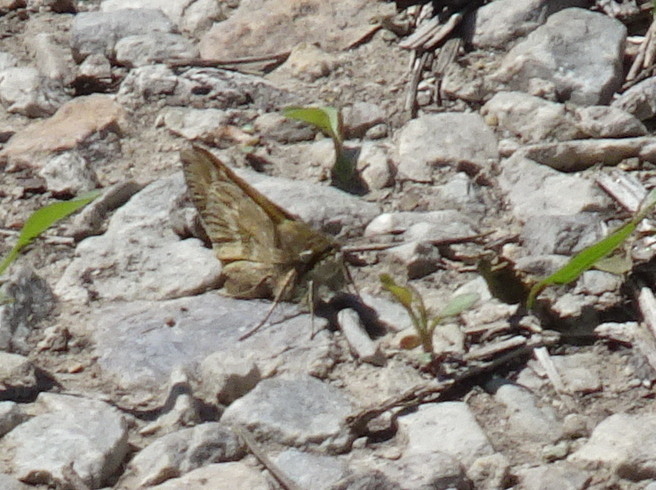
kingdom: Animalia
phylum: Arthropoda
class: Insecta
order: Lepidoptera
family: Hesperiidae
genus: Atalopedes
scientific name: Atalopedes
